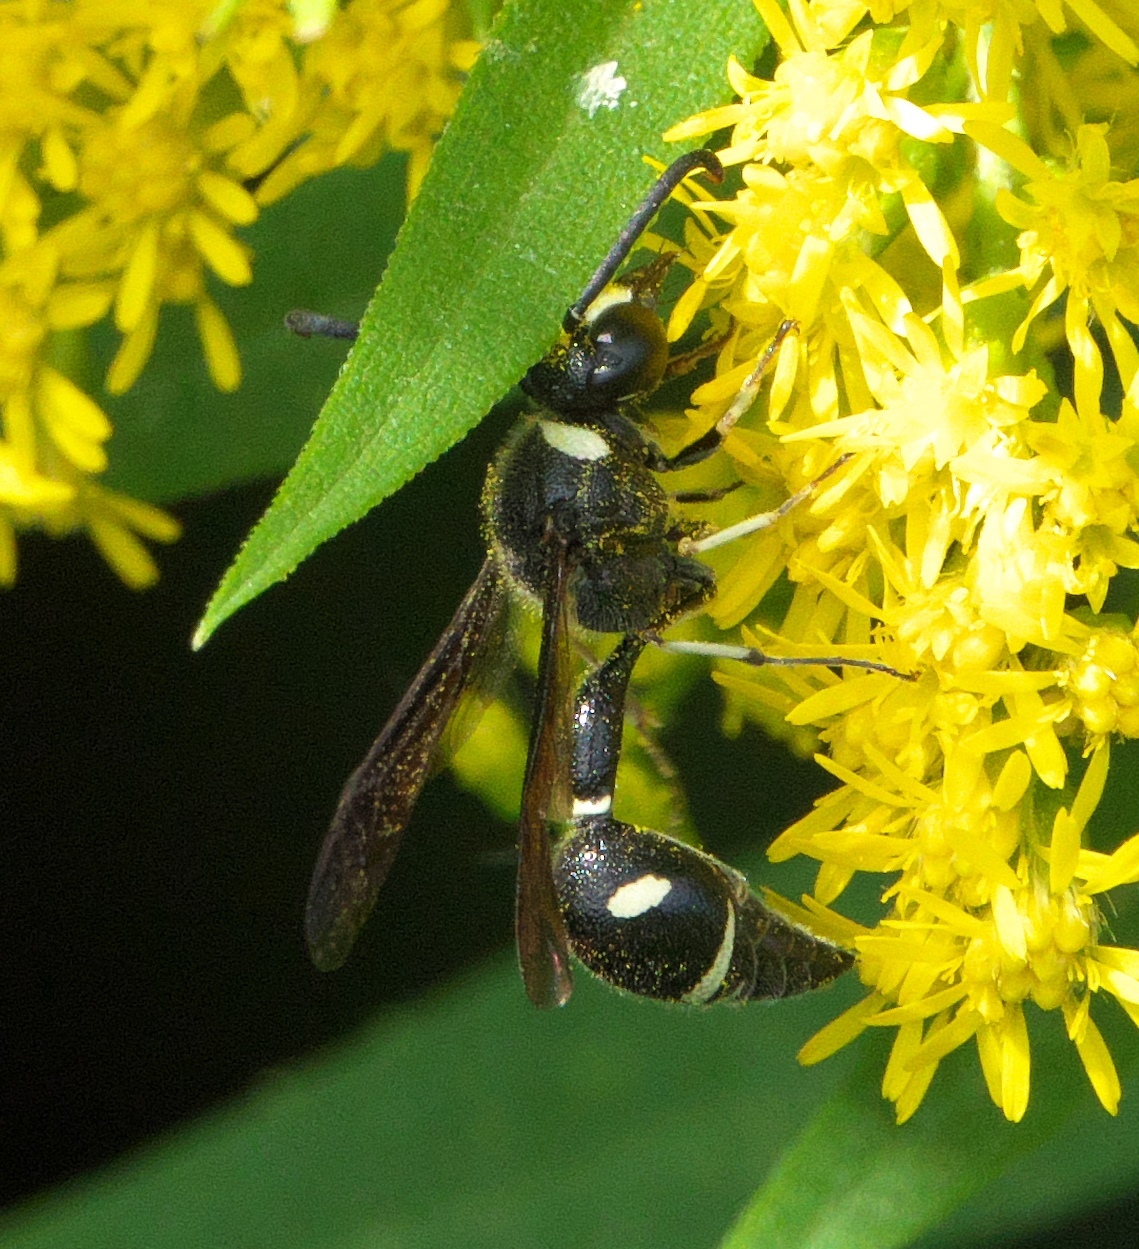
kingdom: Animalia
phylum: Arthropoda
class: Insecta
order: Hymenoptera
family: Vespidae
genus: Eumenes
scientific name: Eumenes fraternus
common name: Fraternal potter wasp
